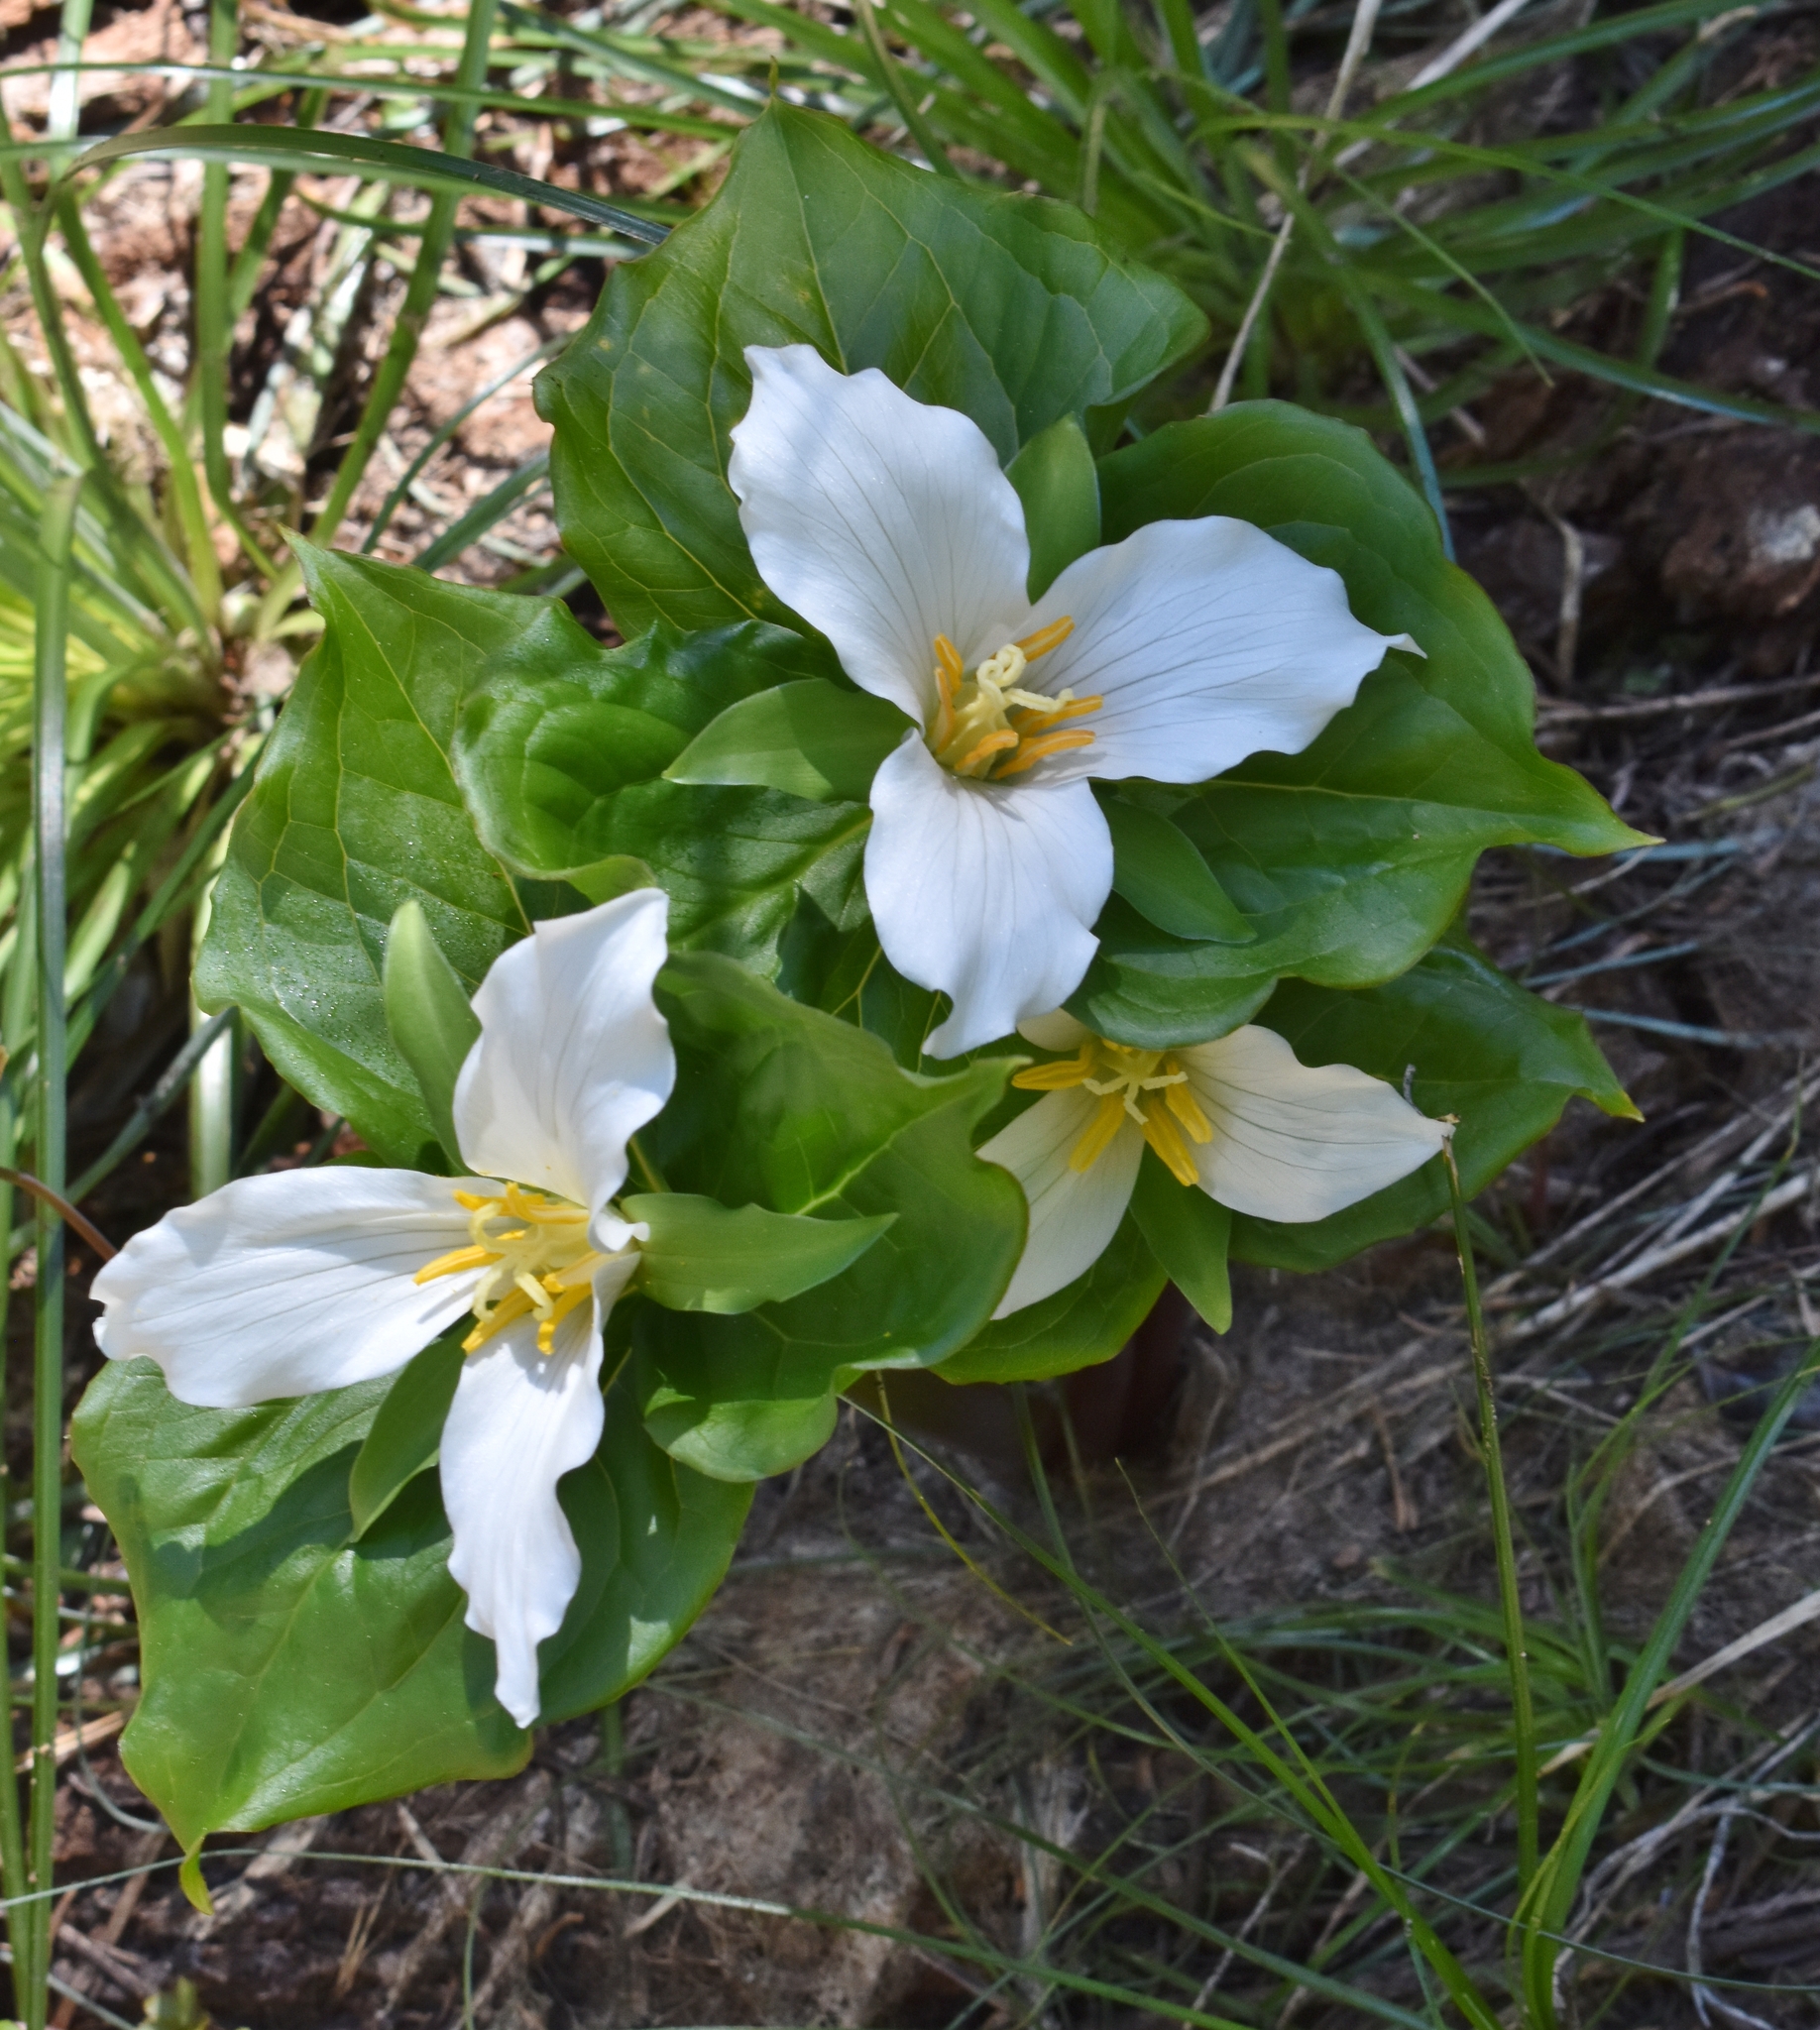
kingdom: Plantae
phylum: Tracheophyta
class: Liliopsida
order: Liliales
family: Melanthiaceae
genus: Trillium
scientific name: Trillium ovatum
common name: Pacific trillium
